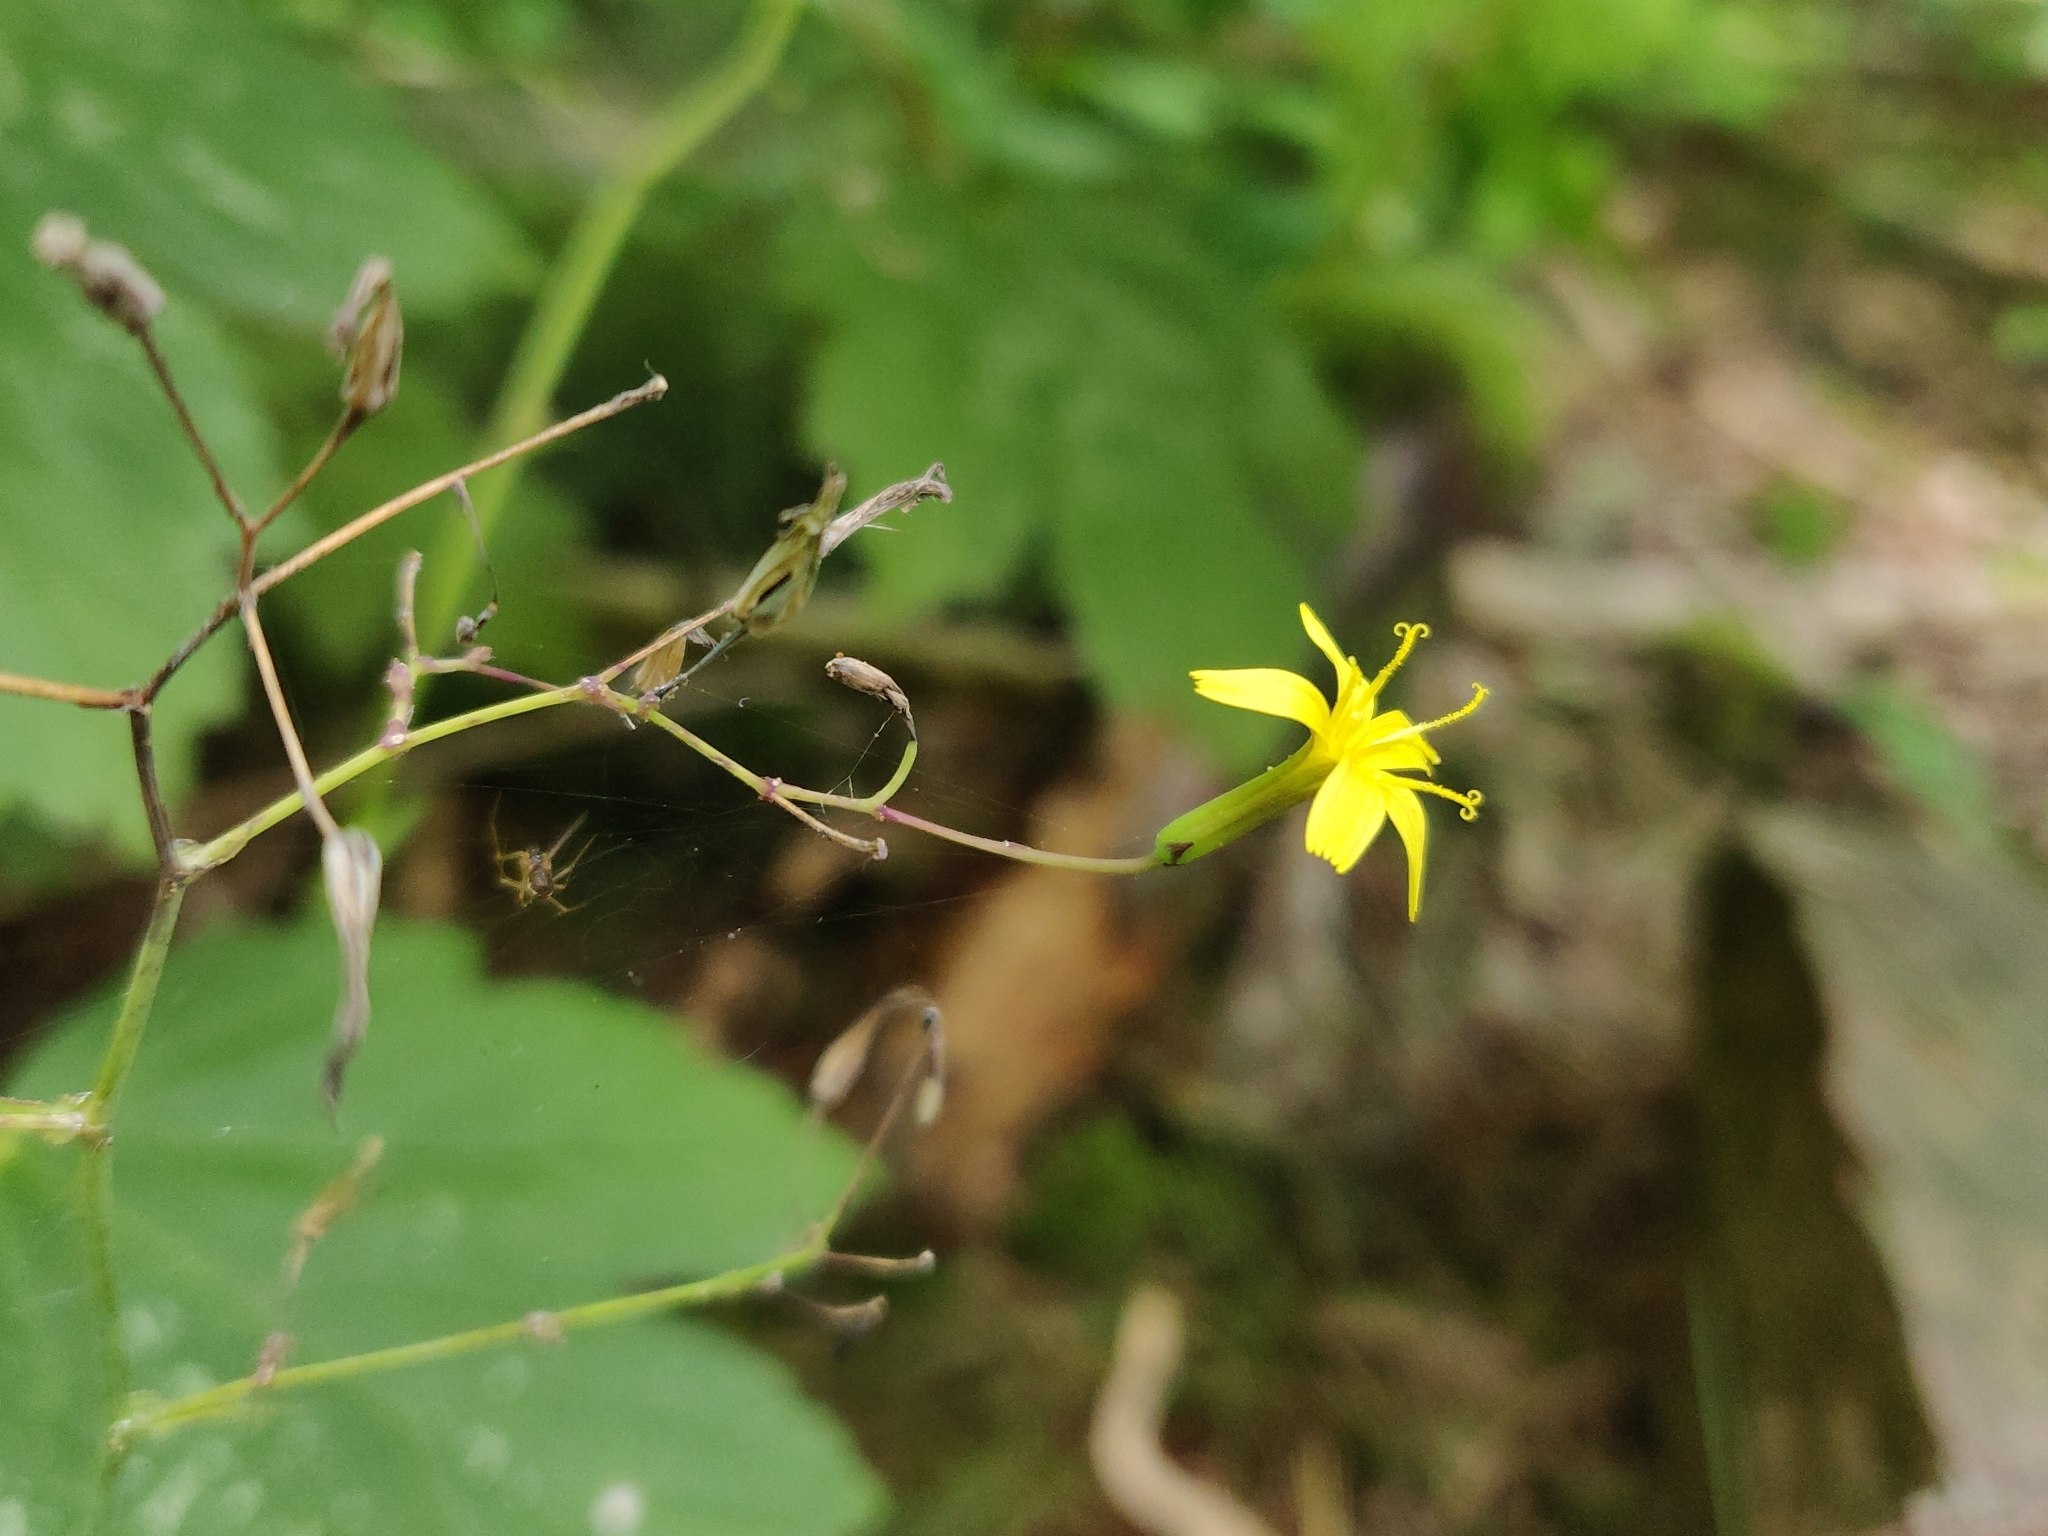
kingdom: Plantae
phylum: Tracheophyta
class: Magnoliopsida
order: Asterales
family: Asteraceae
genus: Mycelis
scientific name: Mycelis muralis
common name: Wall lettuce
